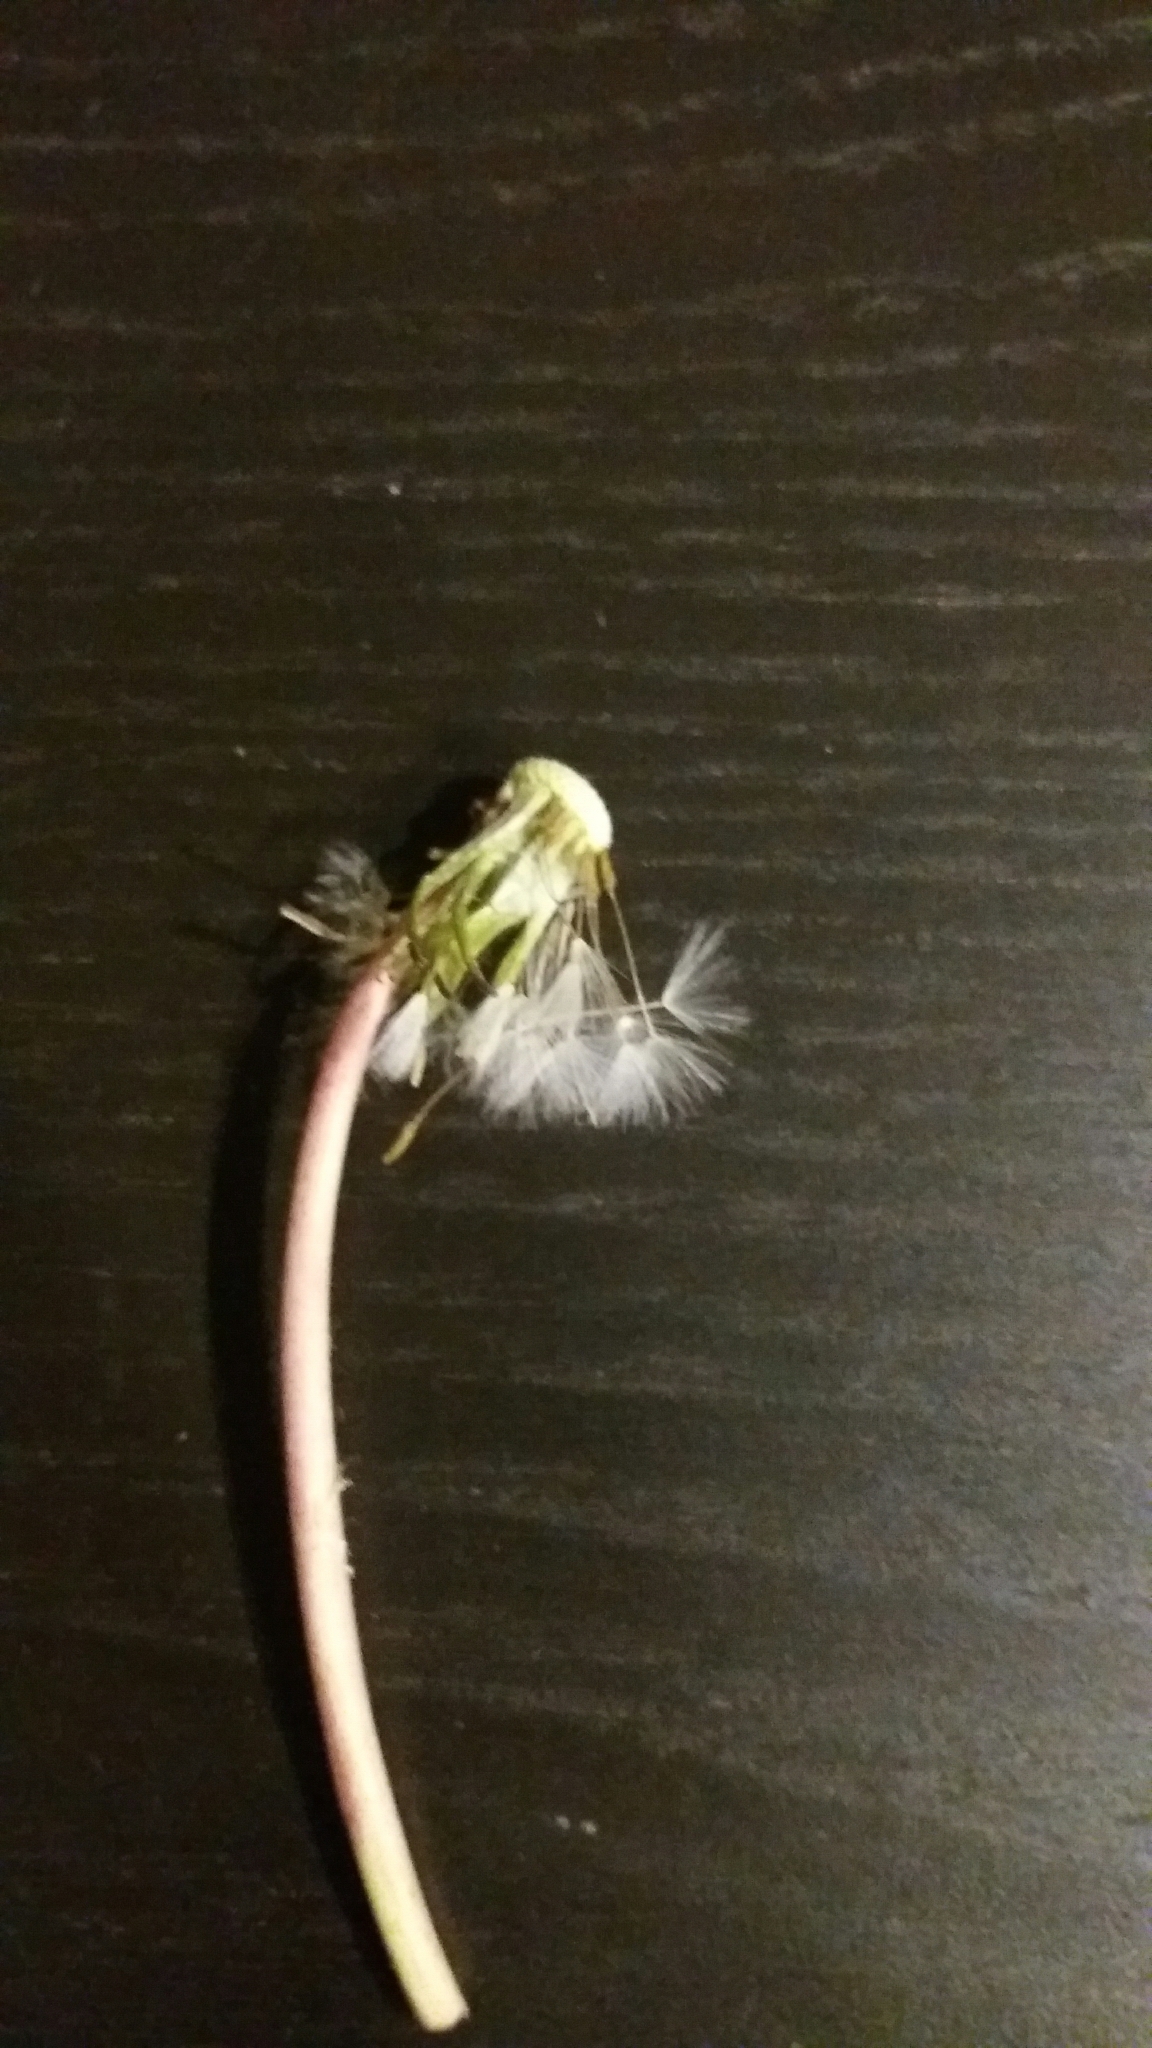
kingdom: Plantae
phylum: Tracheophyta
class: Magnoliopsida
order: Asterales
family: Asteraceae
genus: Taraxacum
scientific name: Taraxacum officinale
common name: Common dandelion
